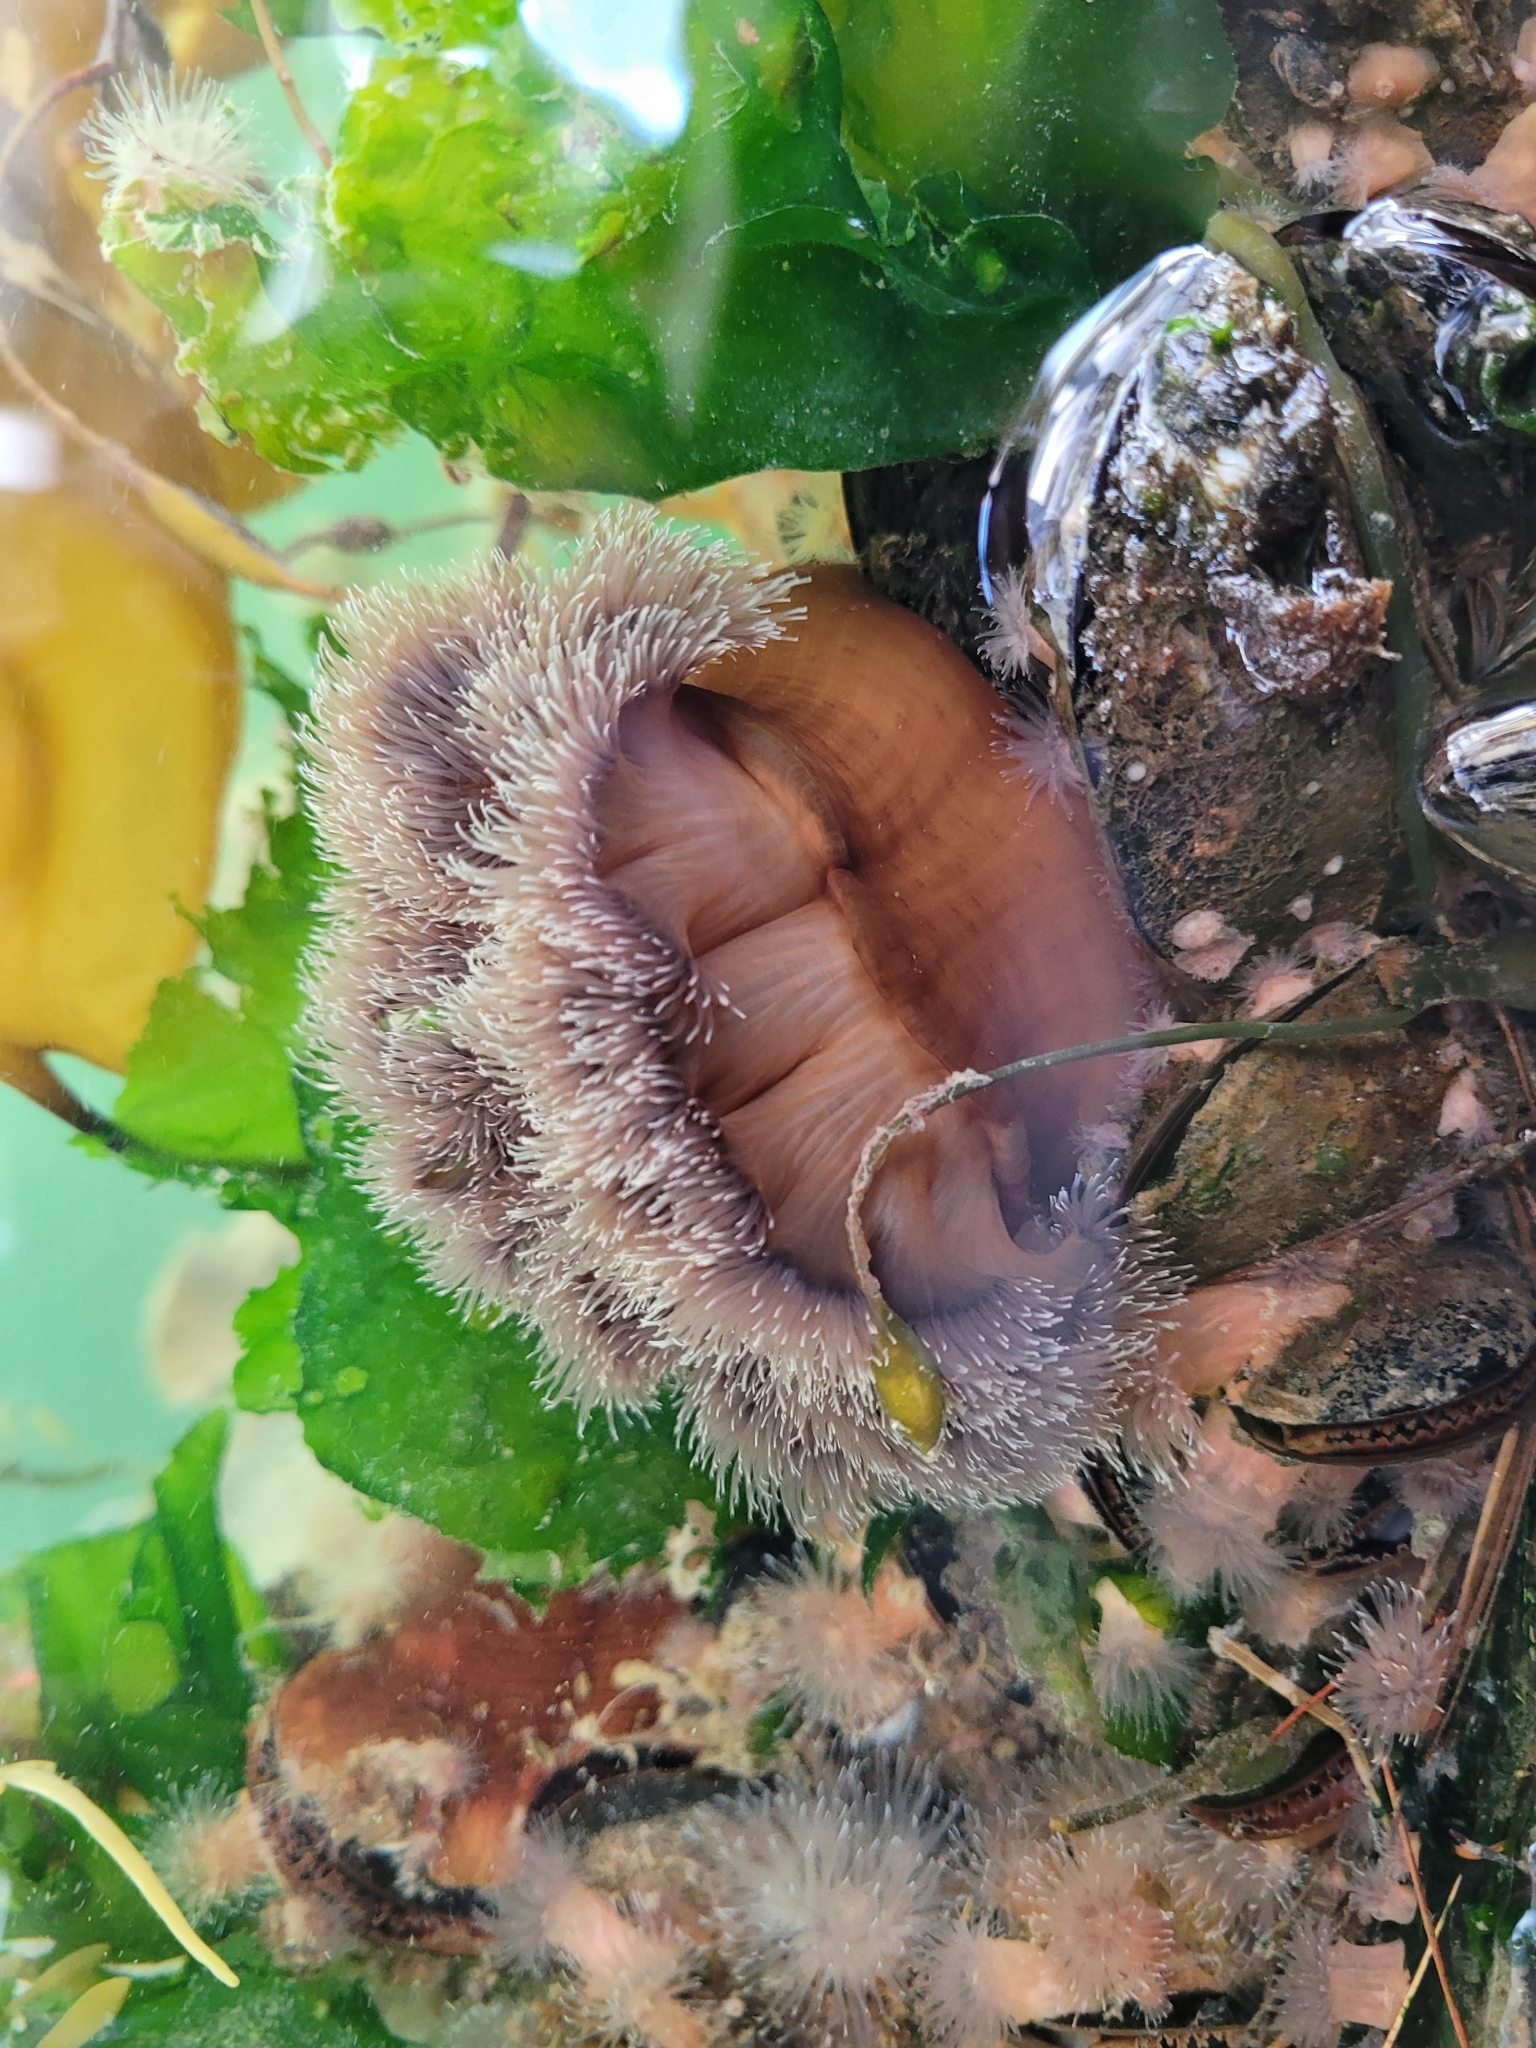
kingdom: Animalia
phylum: Cnidaria
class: Anthozoa
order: Actiniaria
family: Metridiidae
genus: Metridium
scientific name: Metridium senile
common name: Clonal plumose anemone
